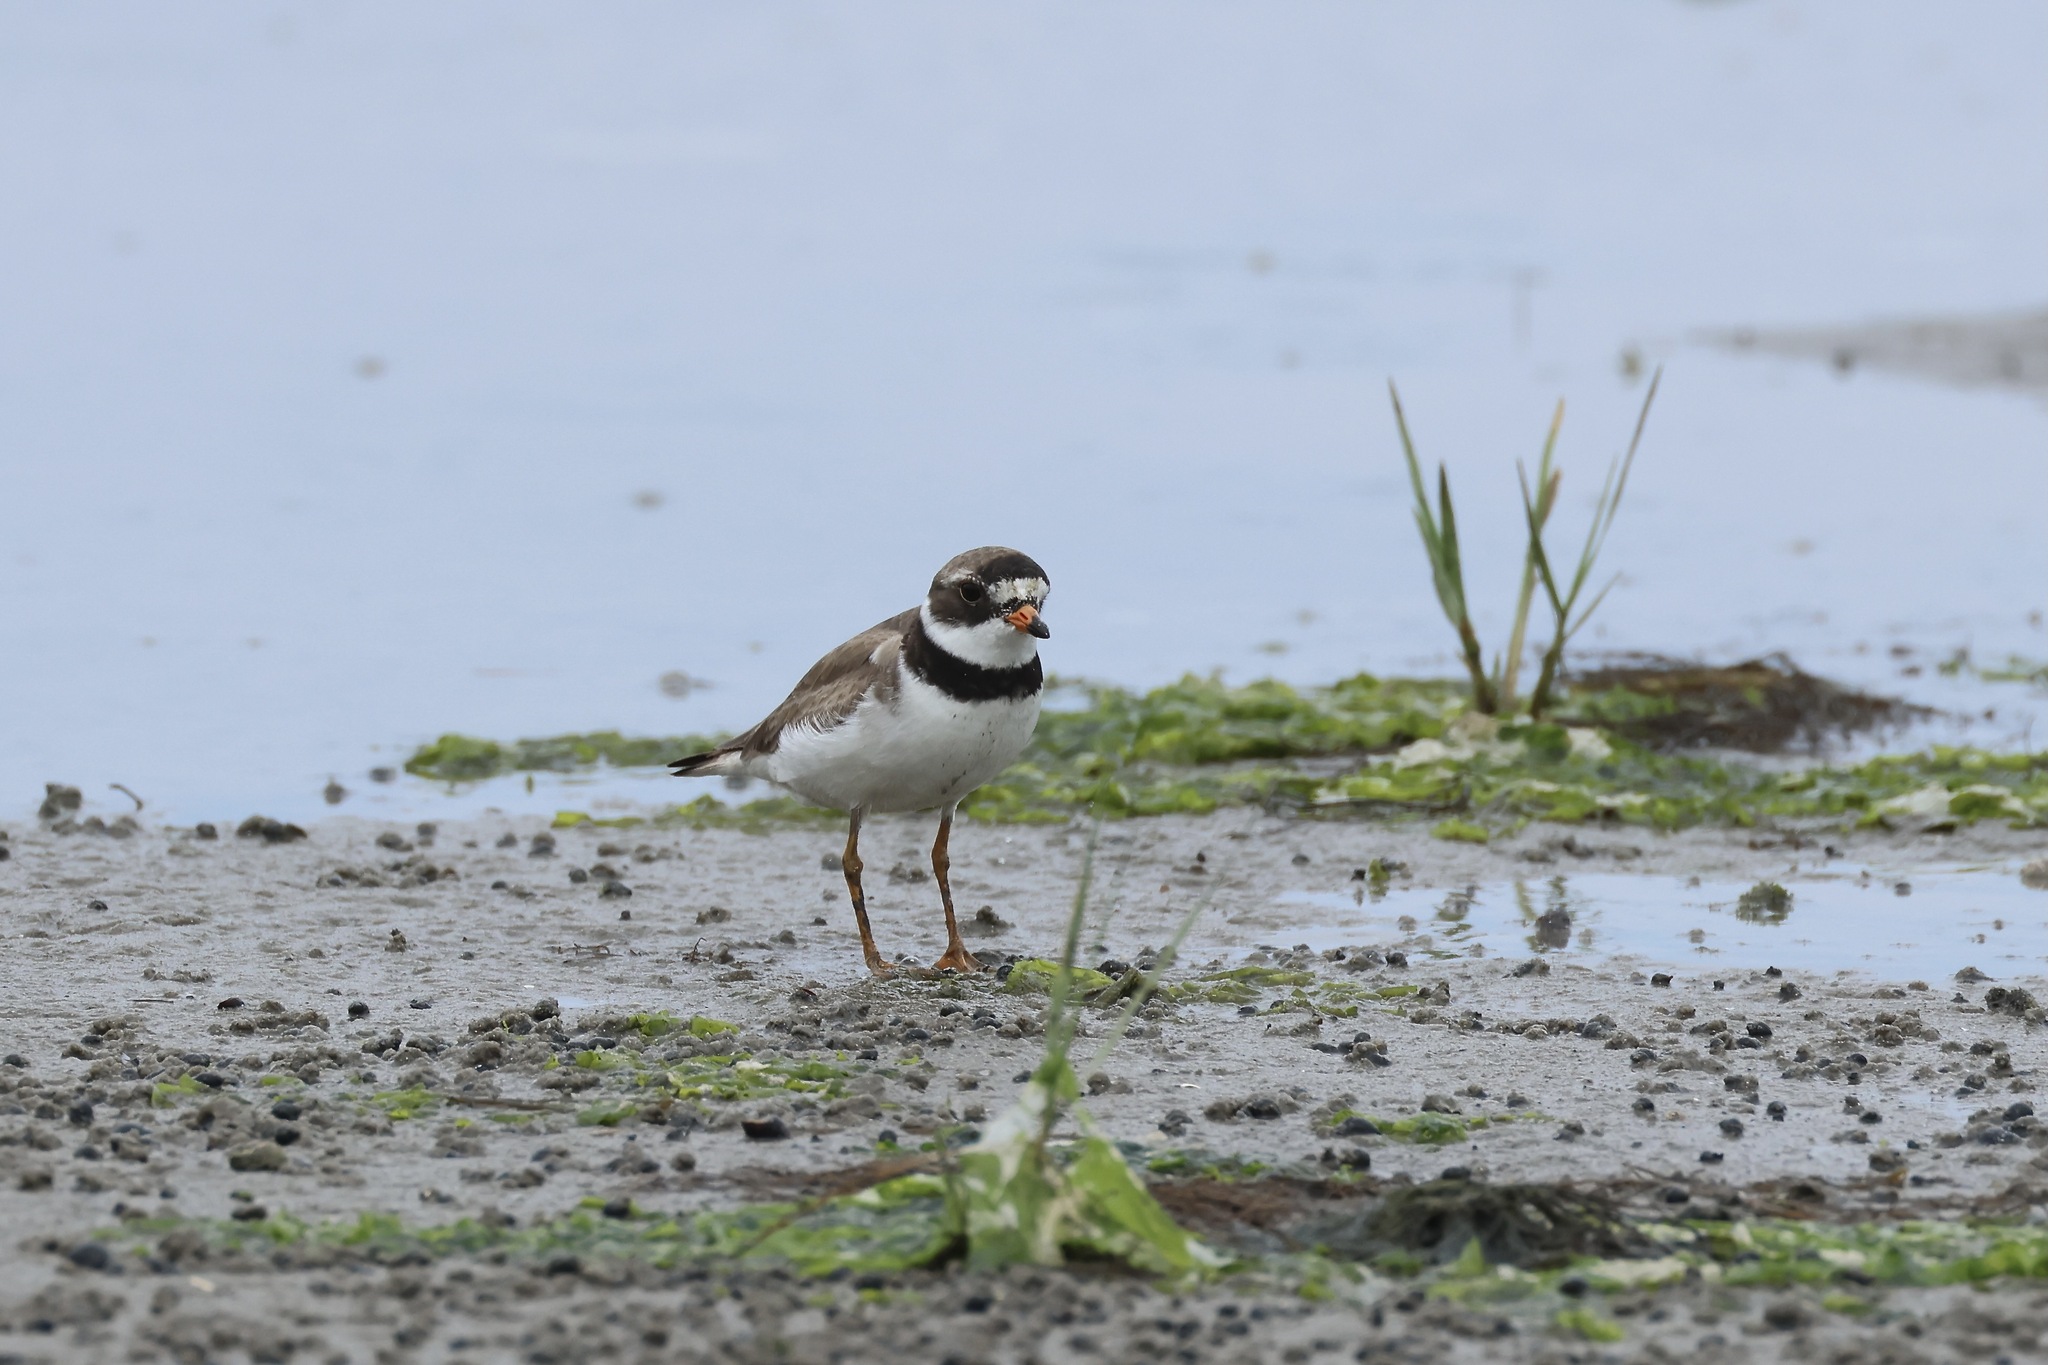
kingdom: Animalia
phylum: Chordata
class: Aves
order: Charadriiformes
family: Charadriidae
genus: Charadrius
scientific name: Charadrius semipalmatus
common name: Semipalmated plover
